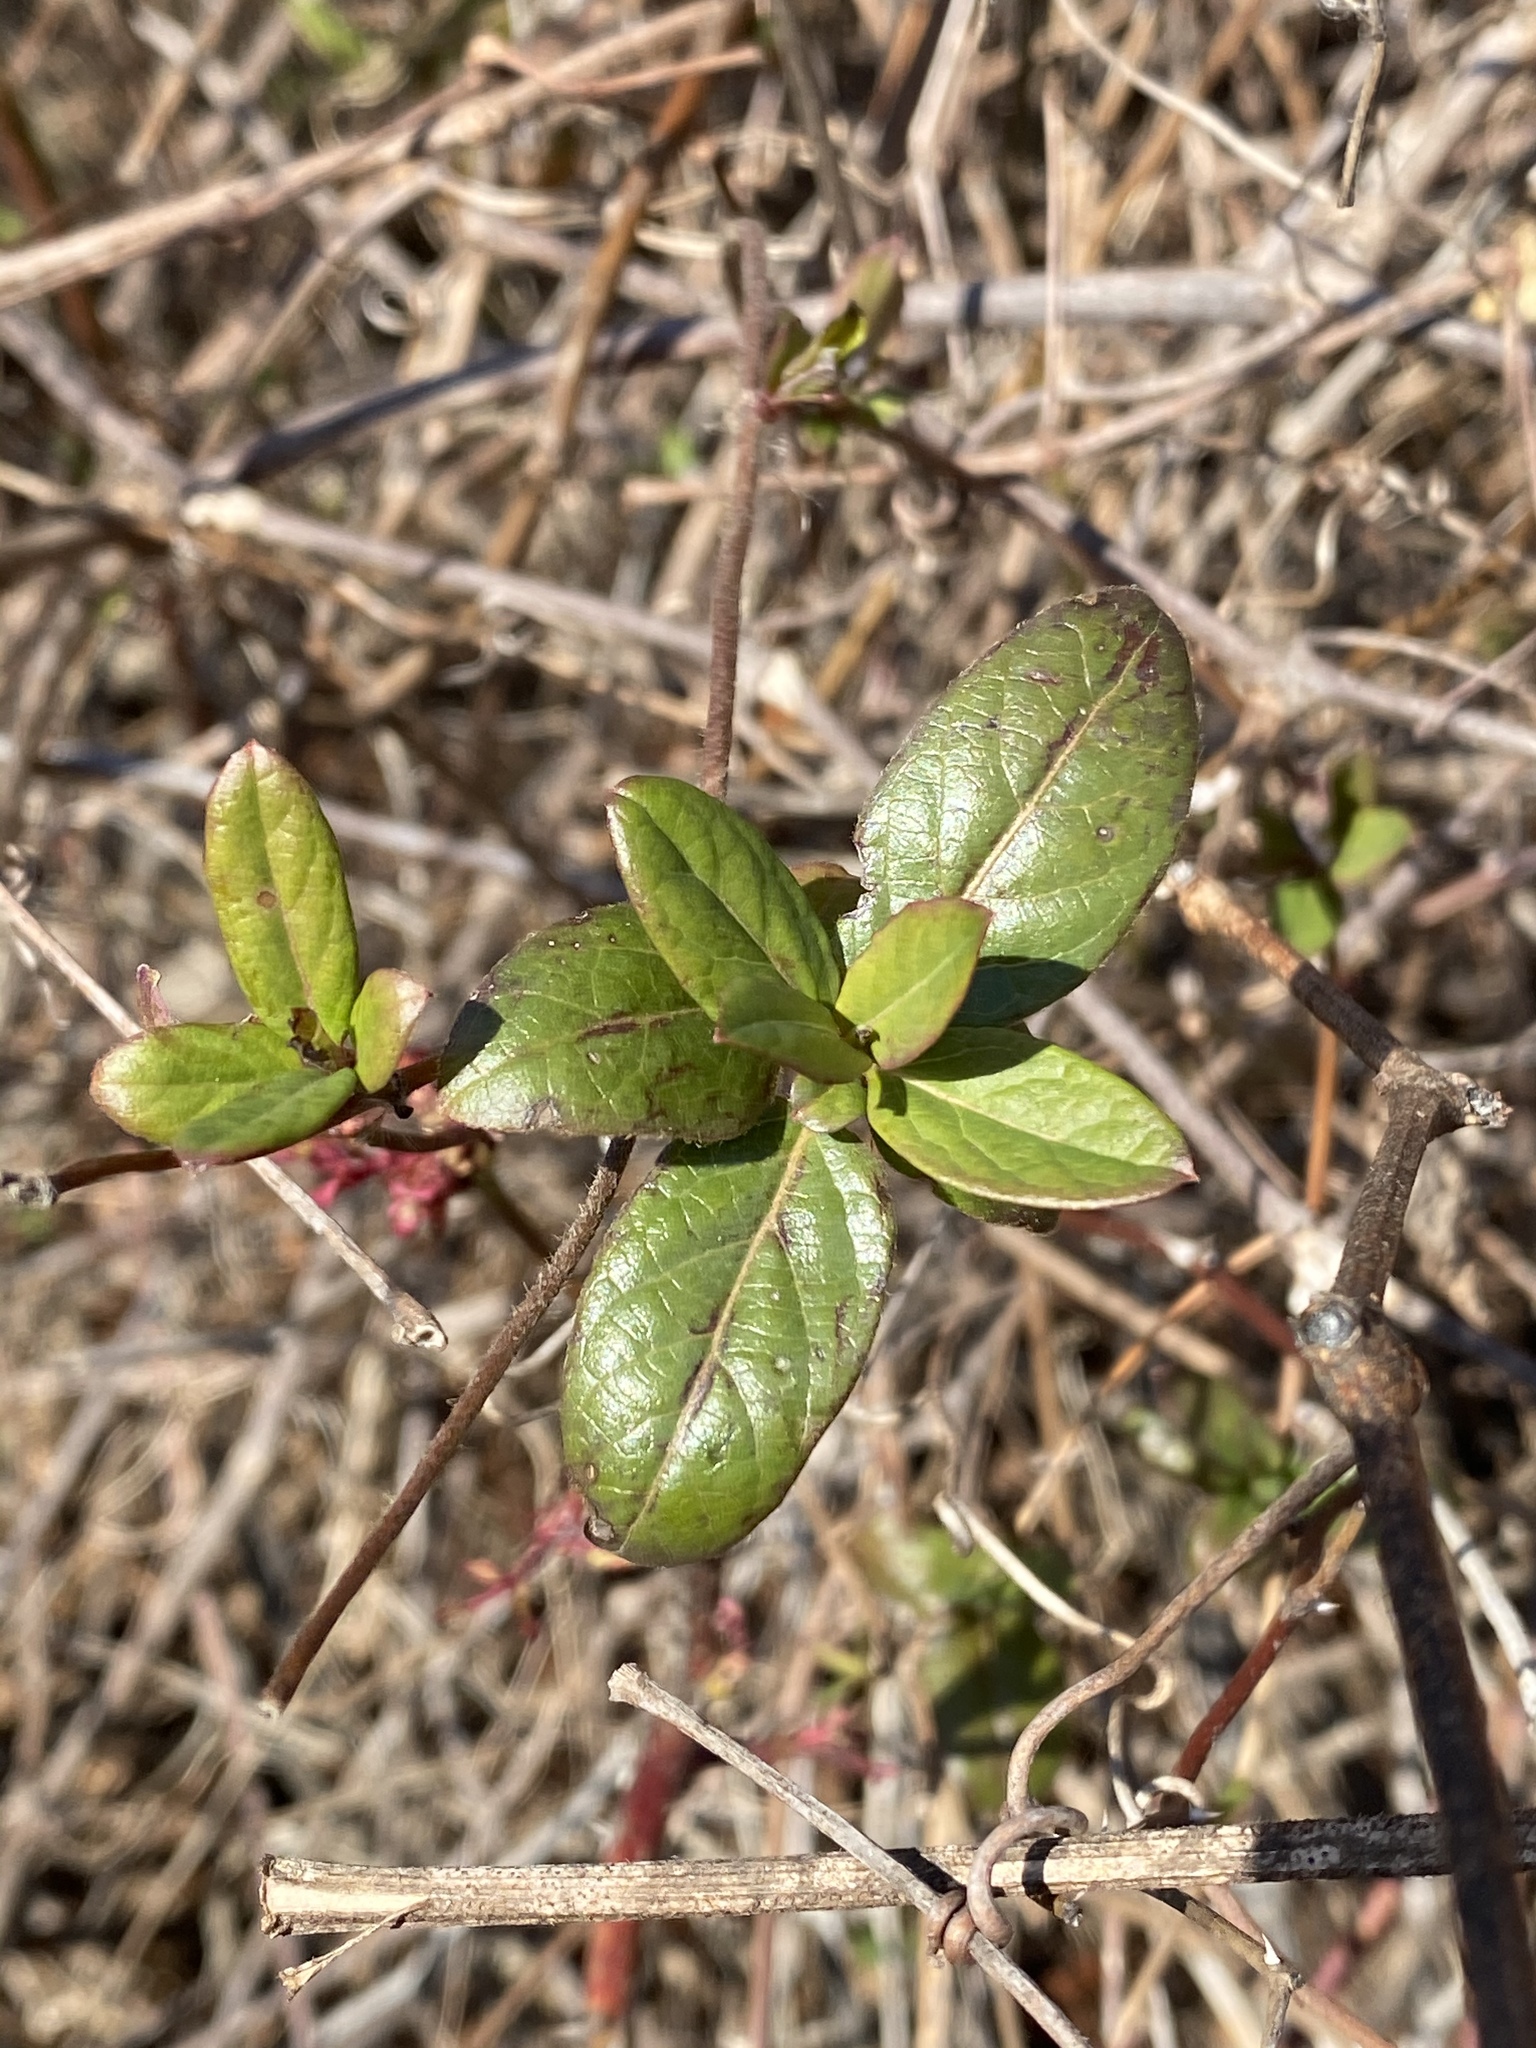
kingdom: Plantae
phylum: Tracheophyta
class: Magnoliopsida
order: Dipsacales
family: Caprifoliaceae
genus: Lonicera
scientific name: Lonicera japonica
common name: Japanese honeysuckle
